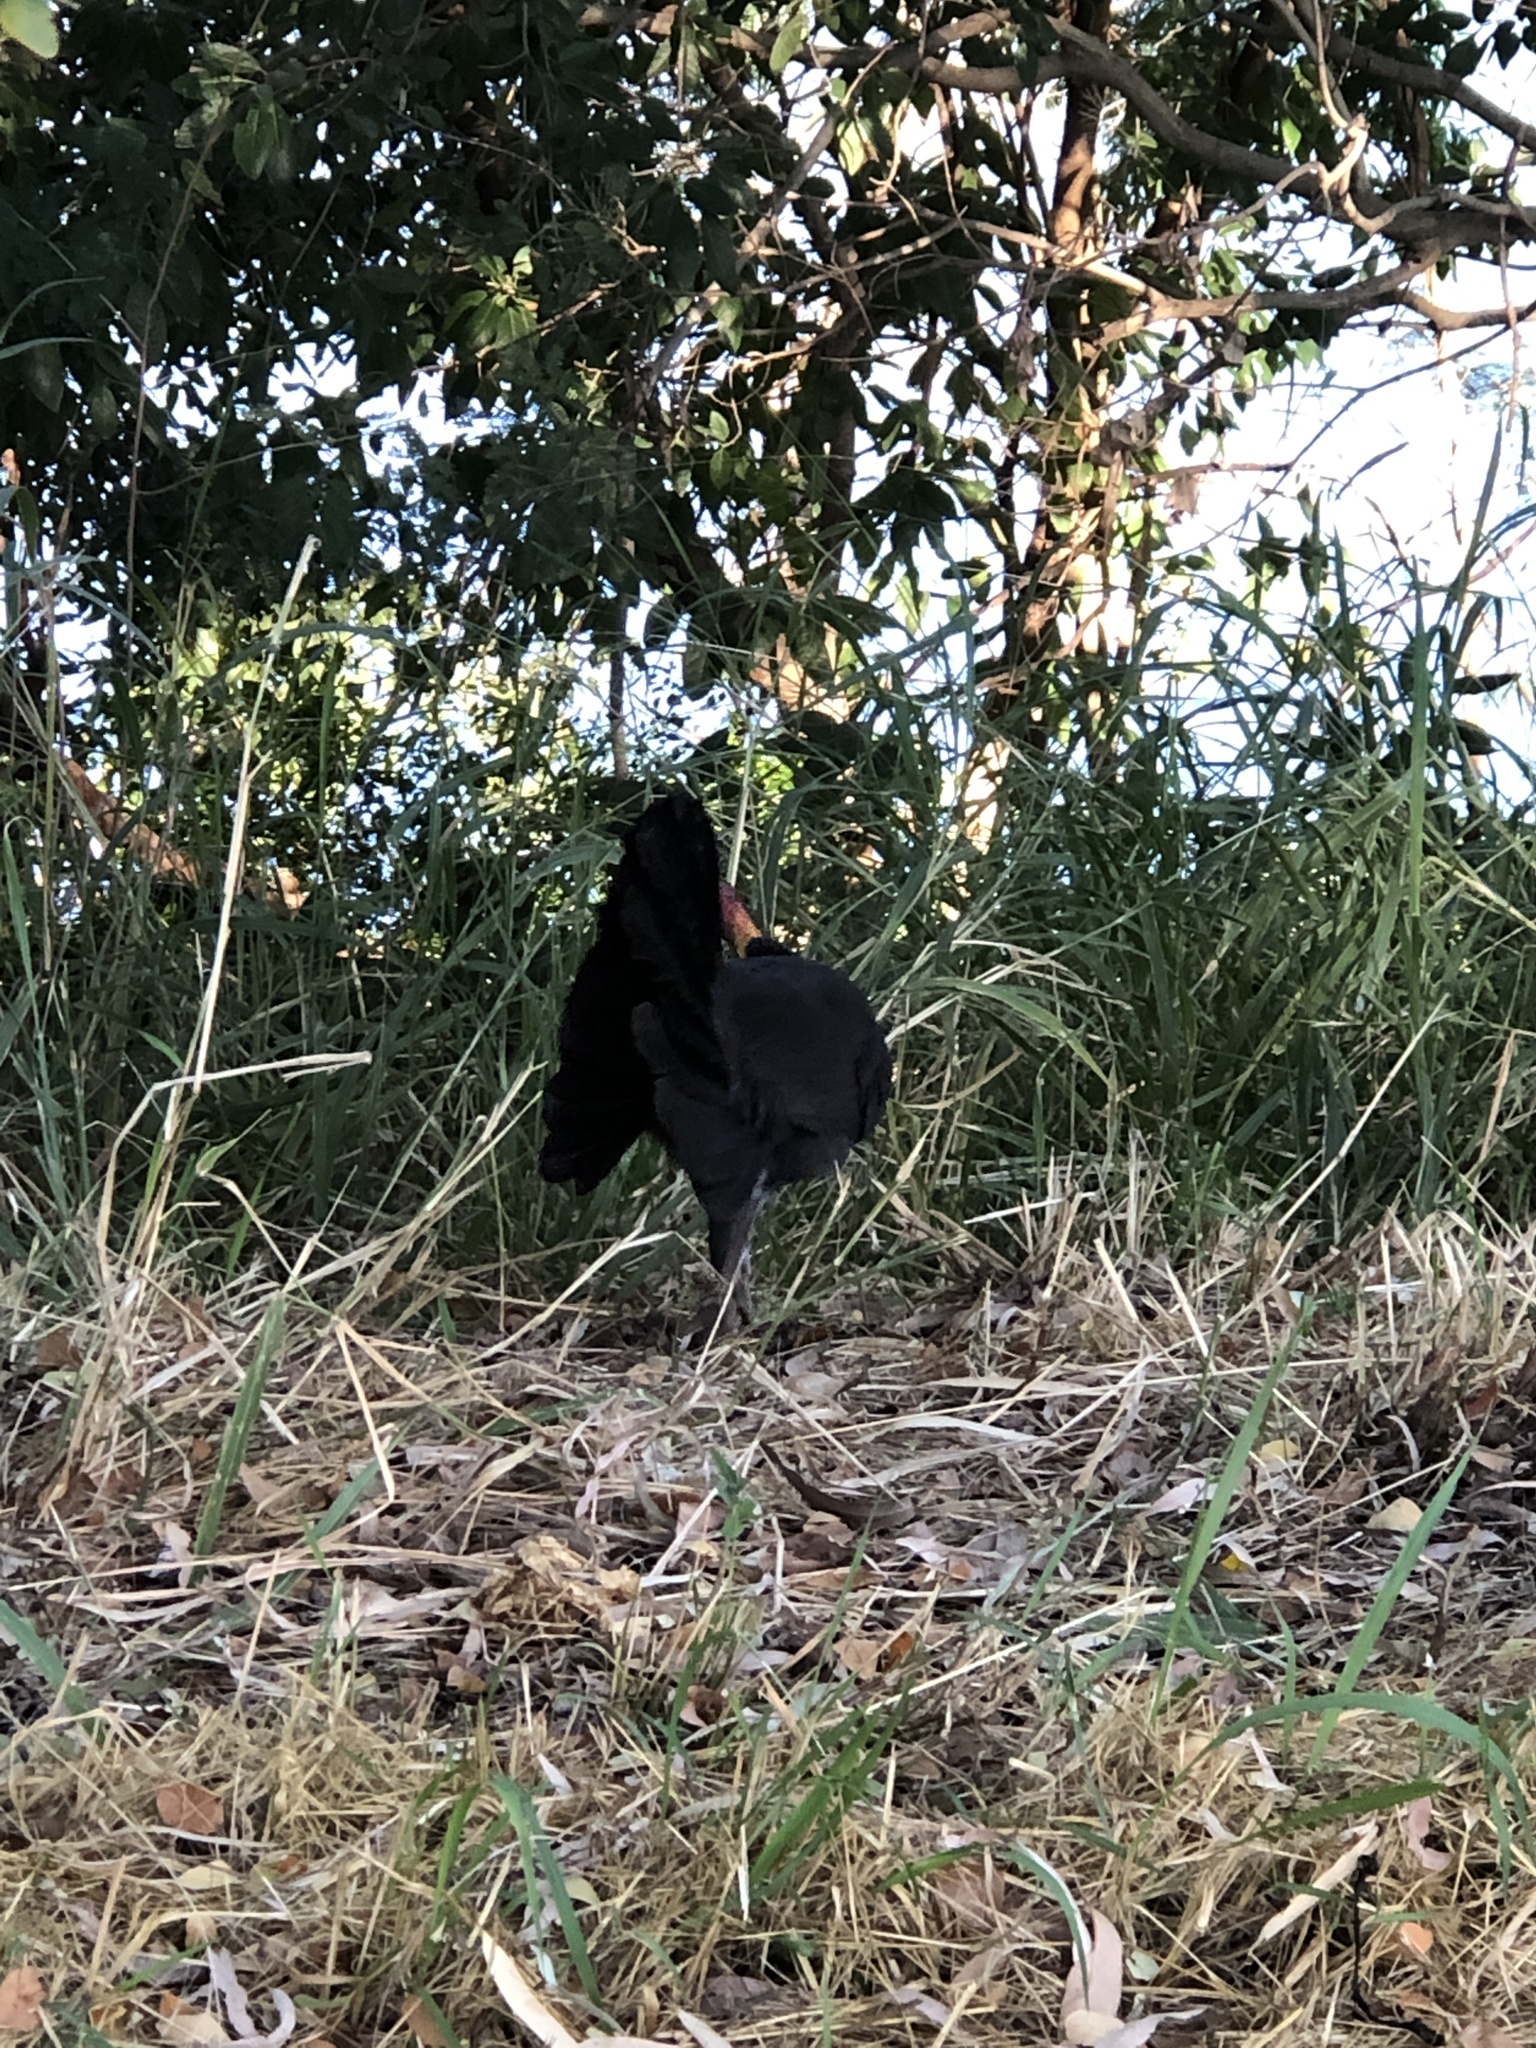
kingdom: Animalia
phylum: Chordata
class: Aves
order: Galliformes
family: Megapodiidae
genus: Alectura
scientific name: Alectura lathami
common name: Australian brushturkey
